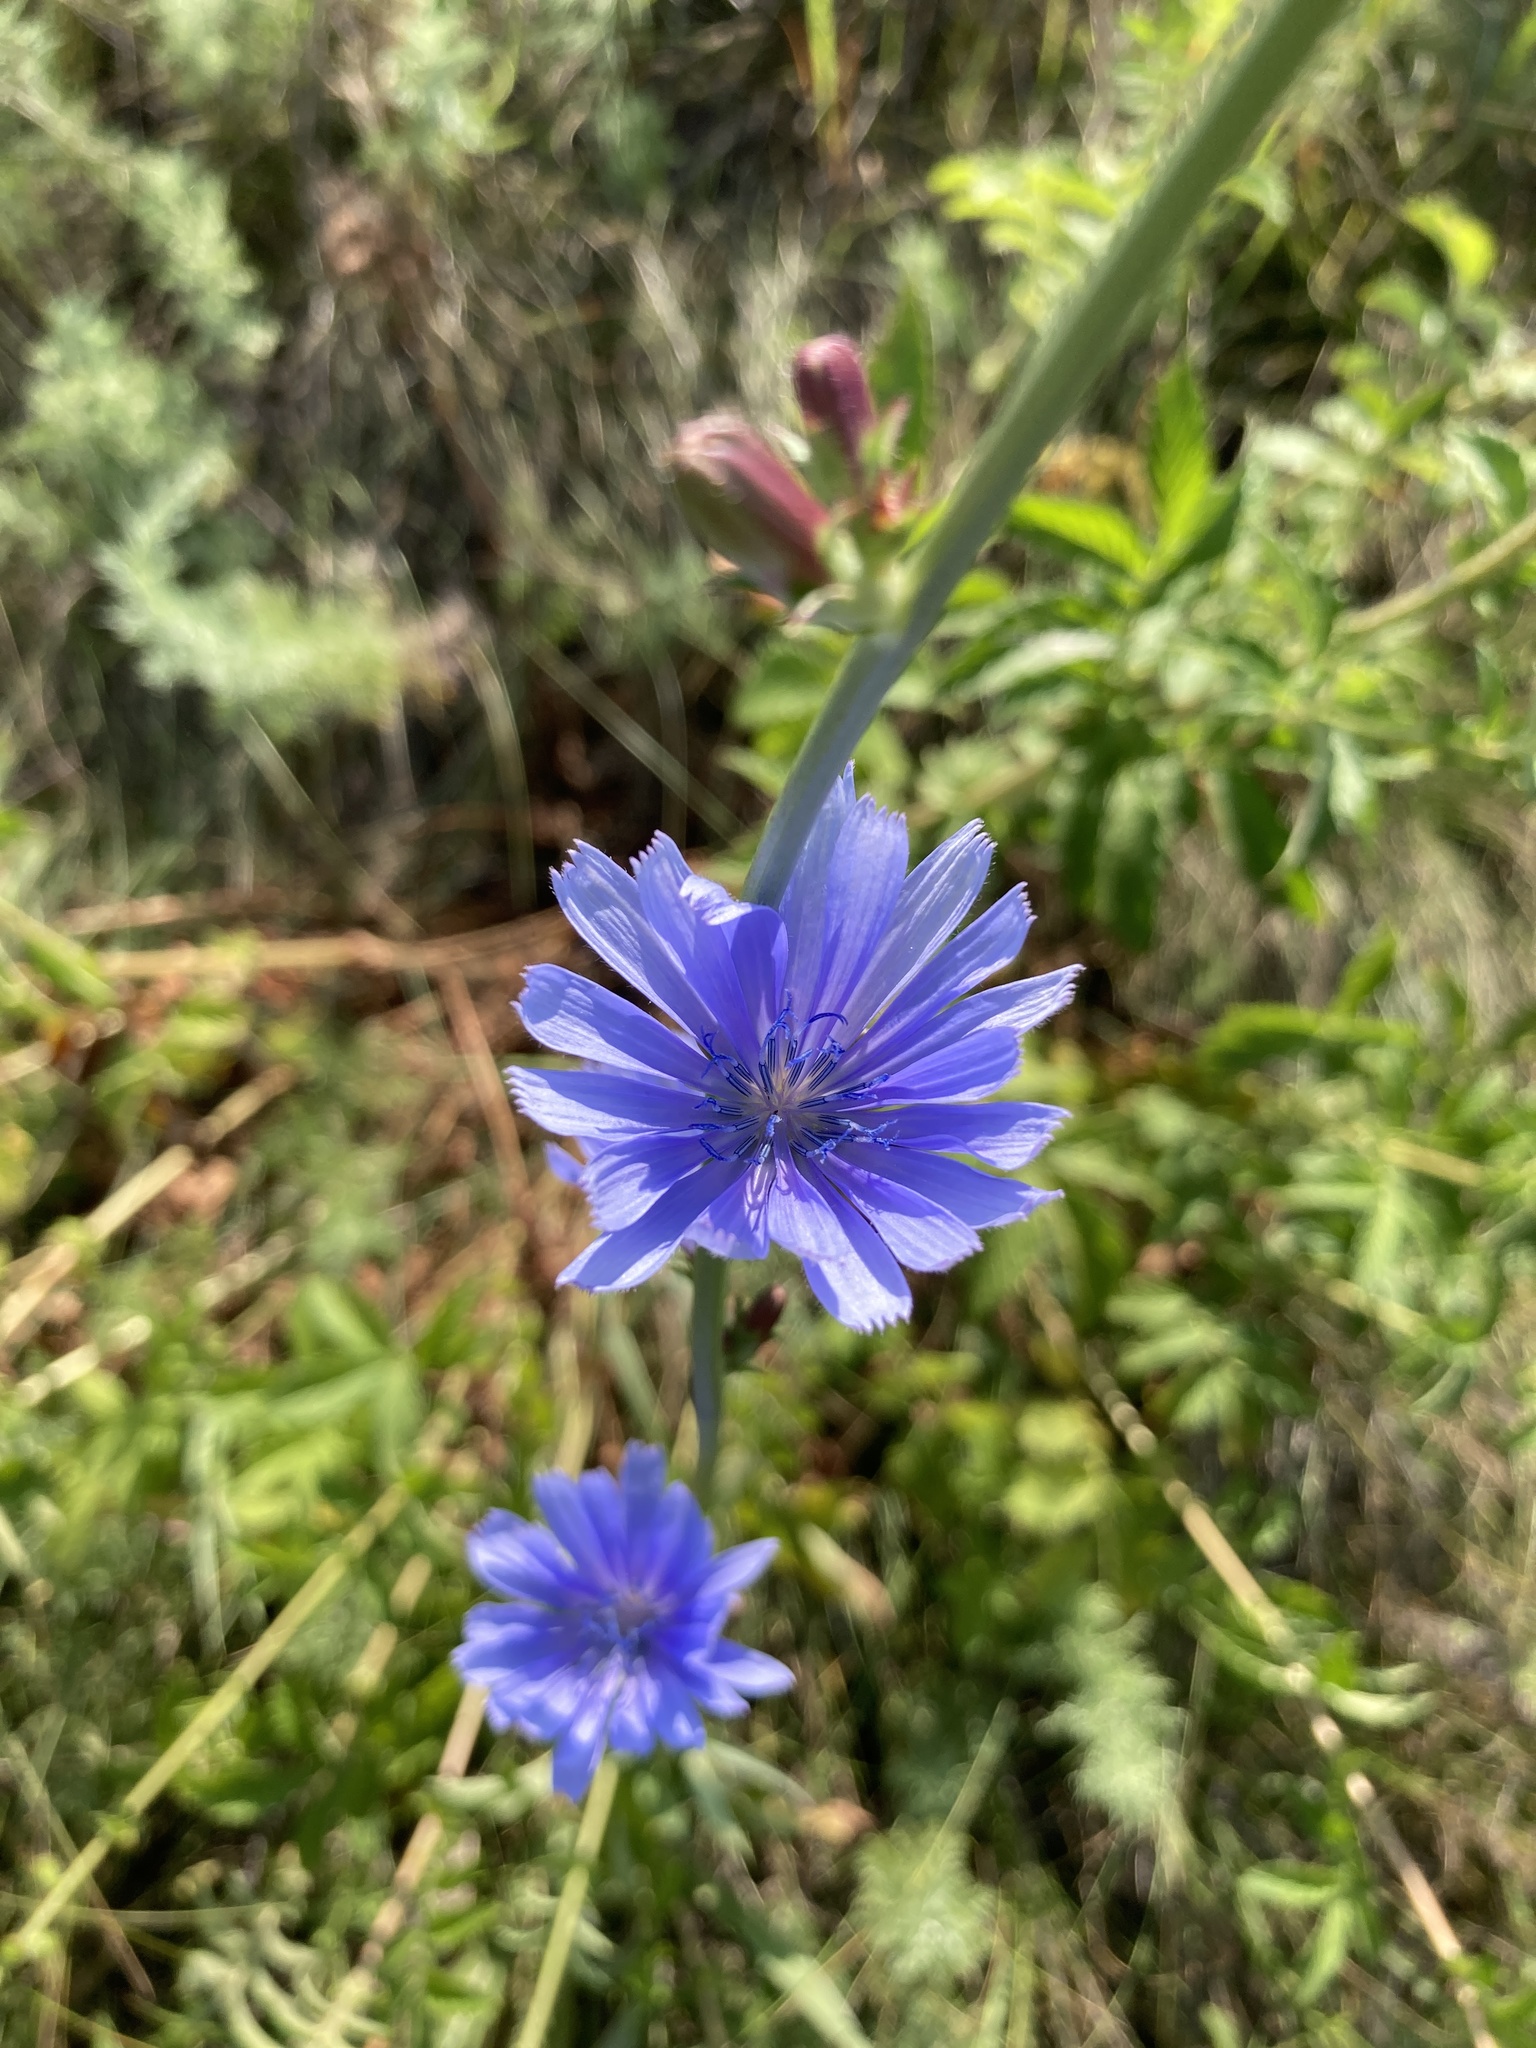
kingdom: Plantae
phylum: Tracheophyta
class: Magnoliopsida
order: Asterales
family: Asteraceae
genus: Cichorium
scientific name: Cichorium intybus
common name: Chicory
